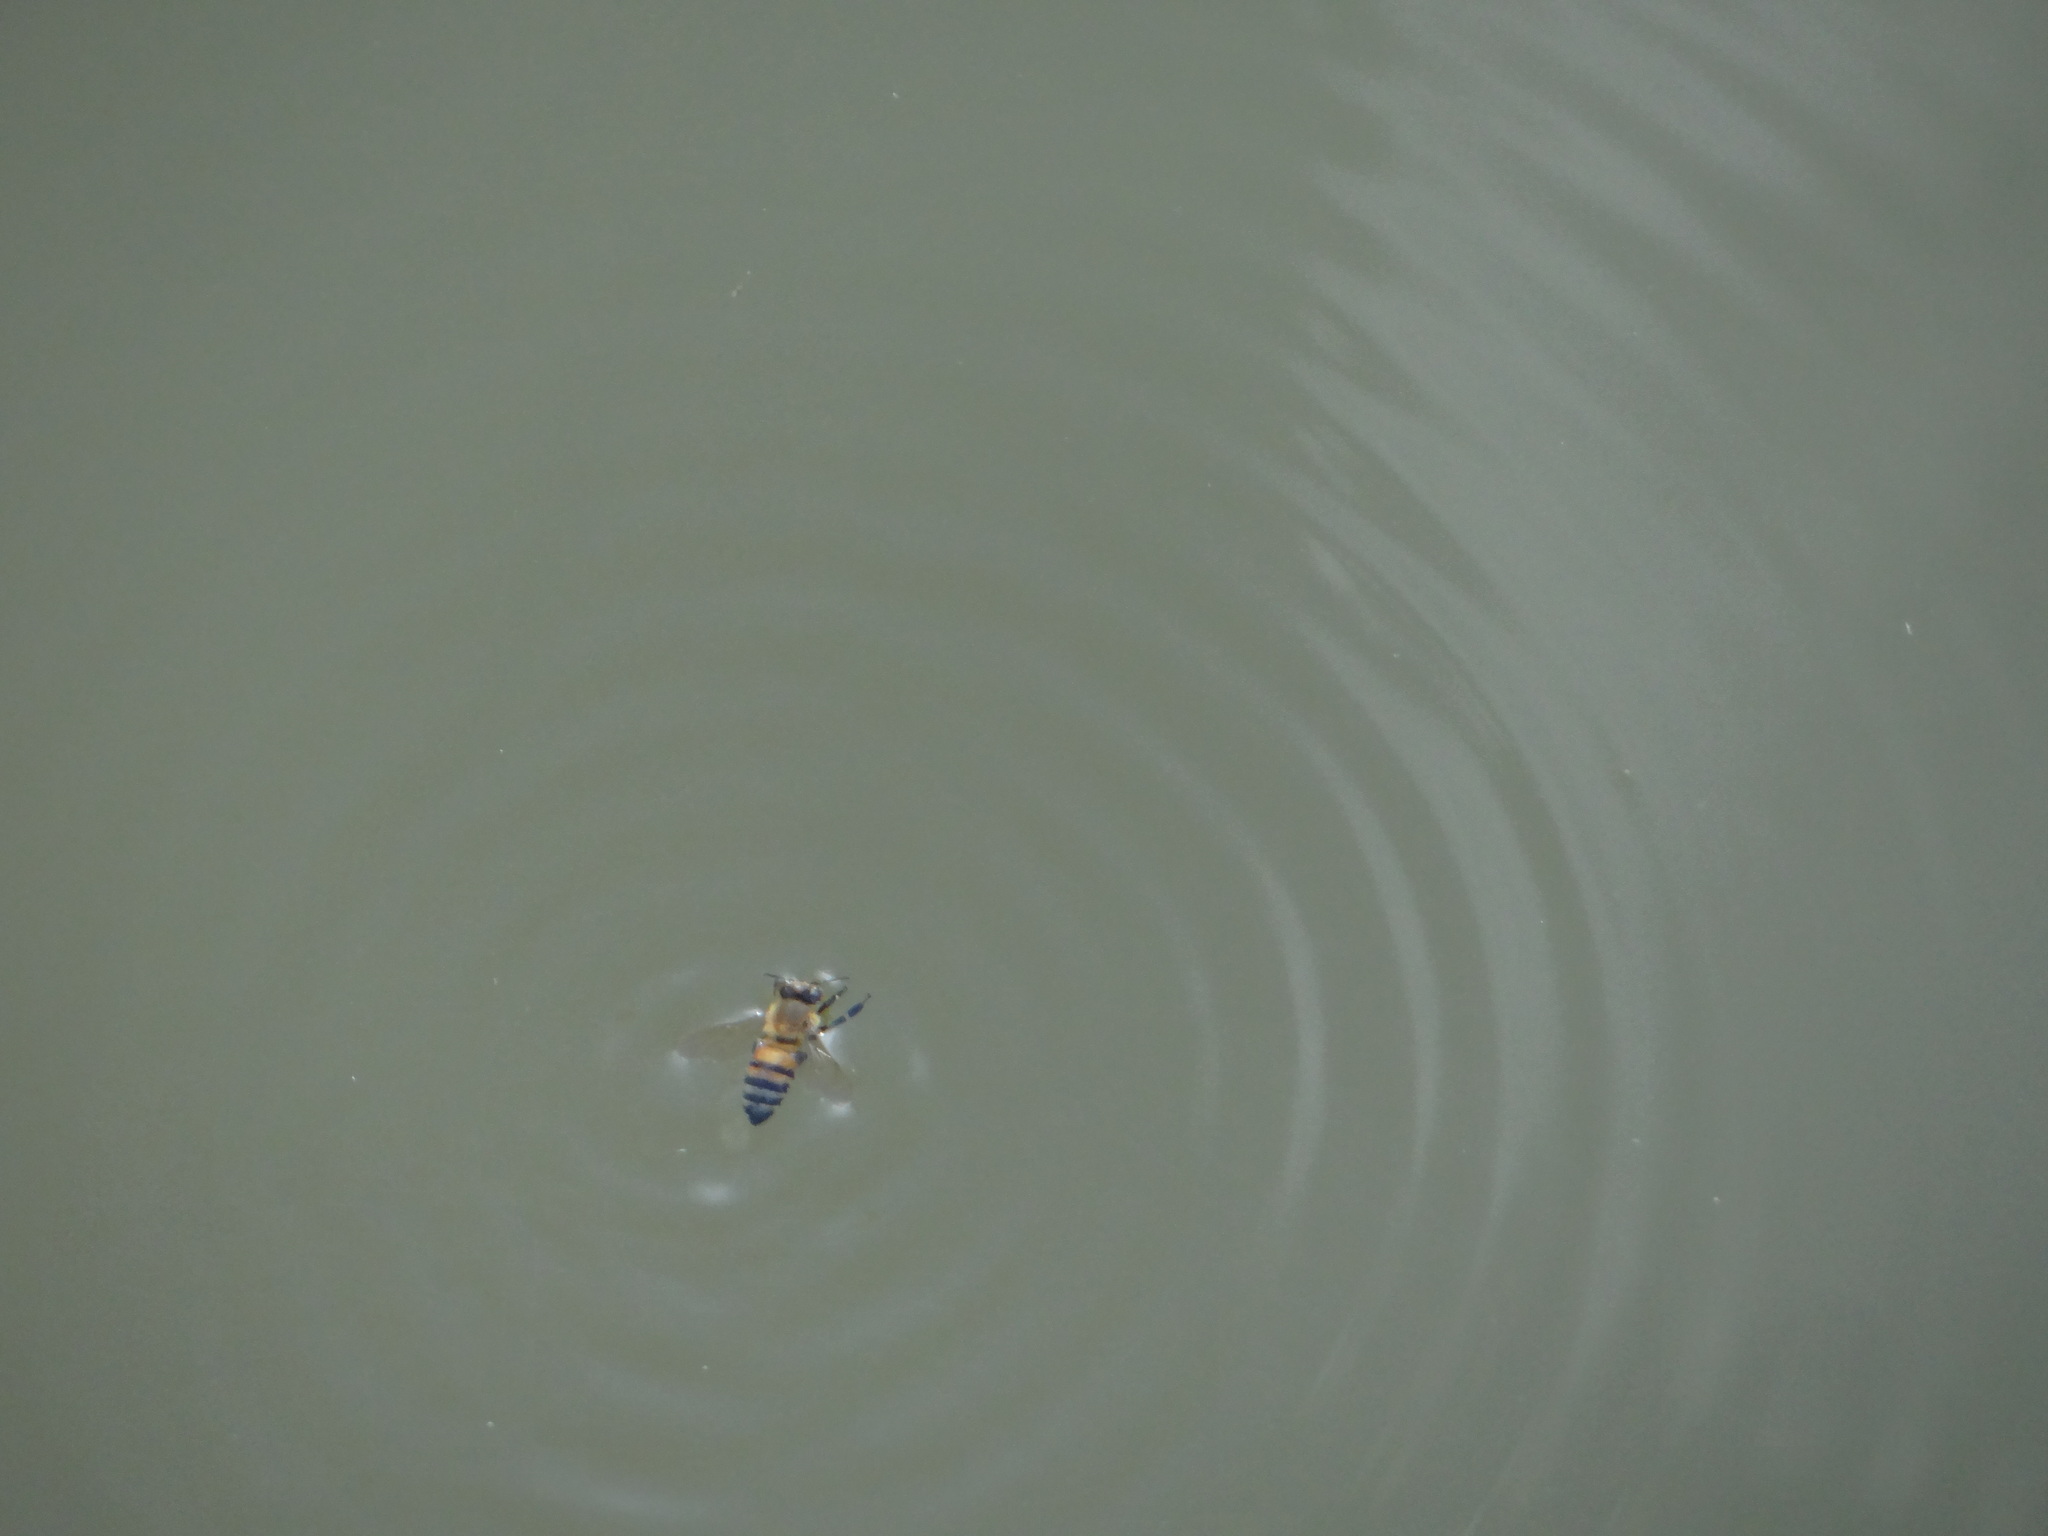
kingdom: Animalia
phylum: Arthropoda
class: Insecta
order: Hymenoptera
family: Apidae
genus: Apis
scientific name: Apis mellifera
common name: Honey bee
